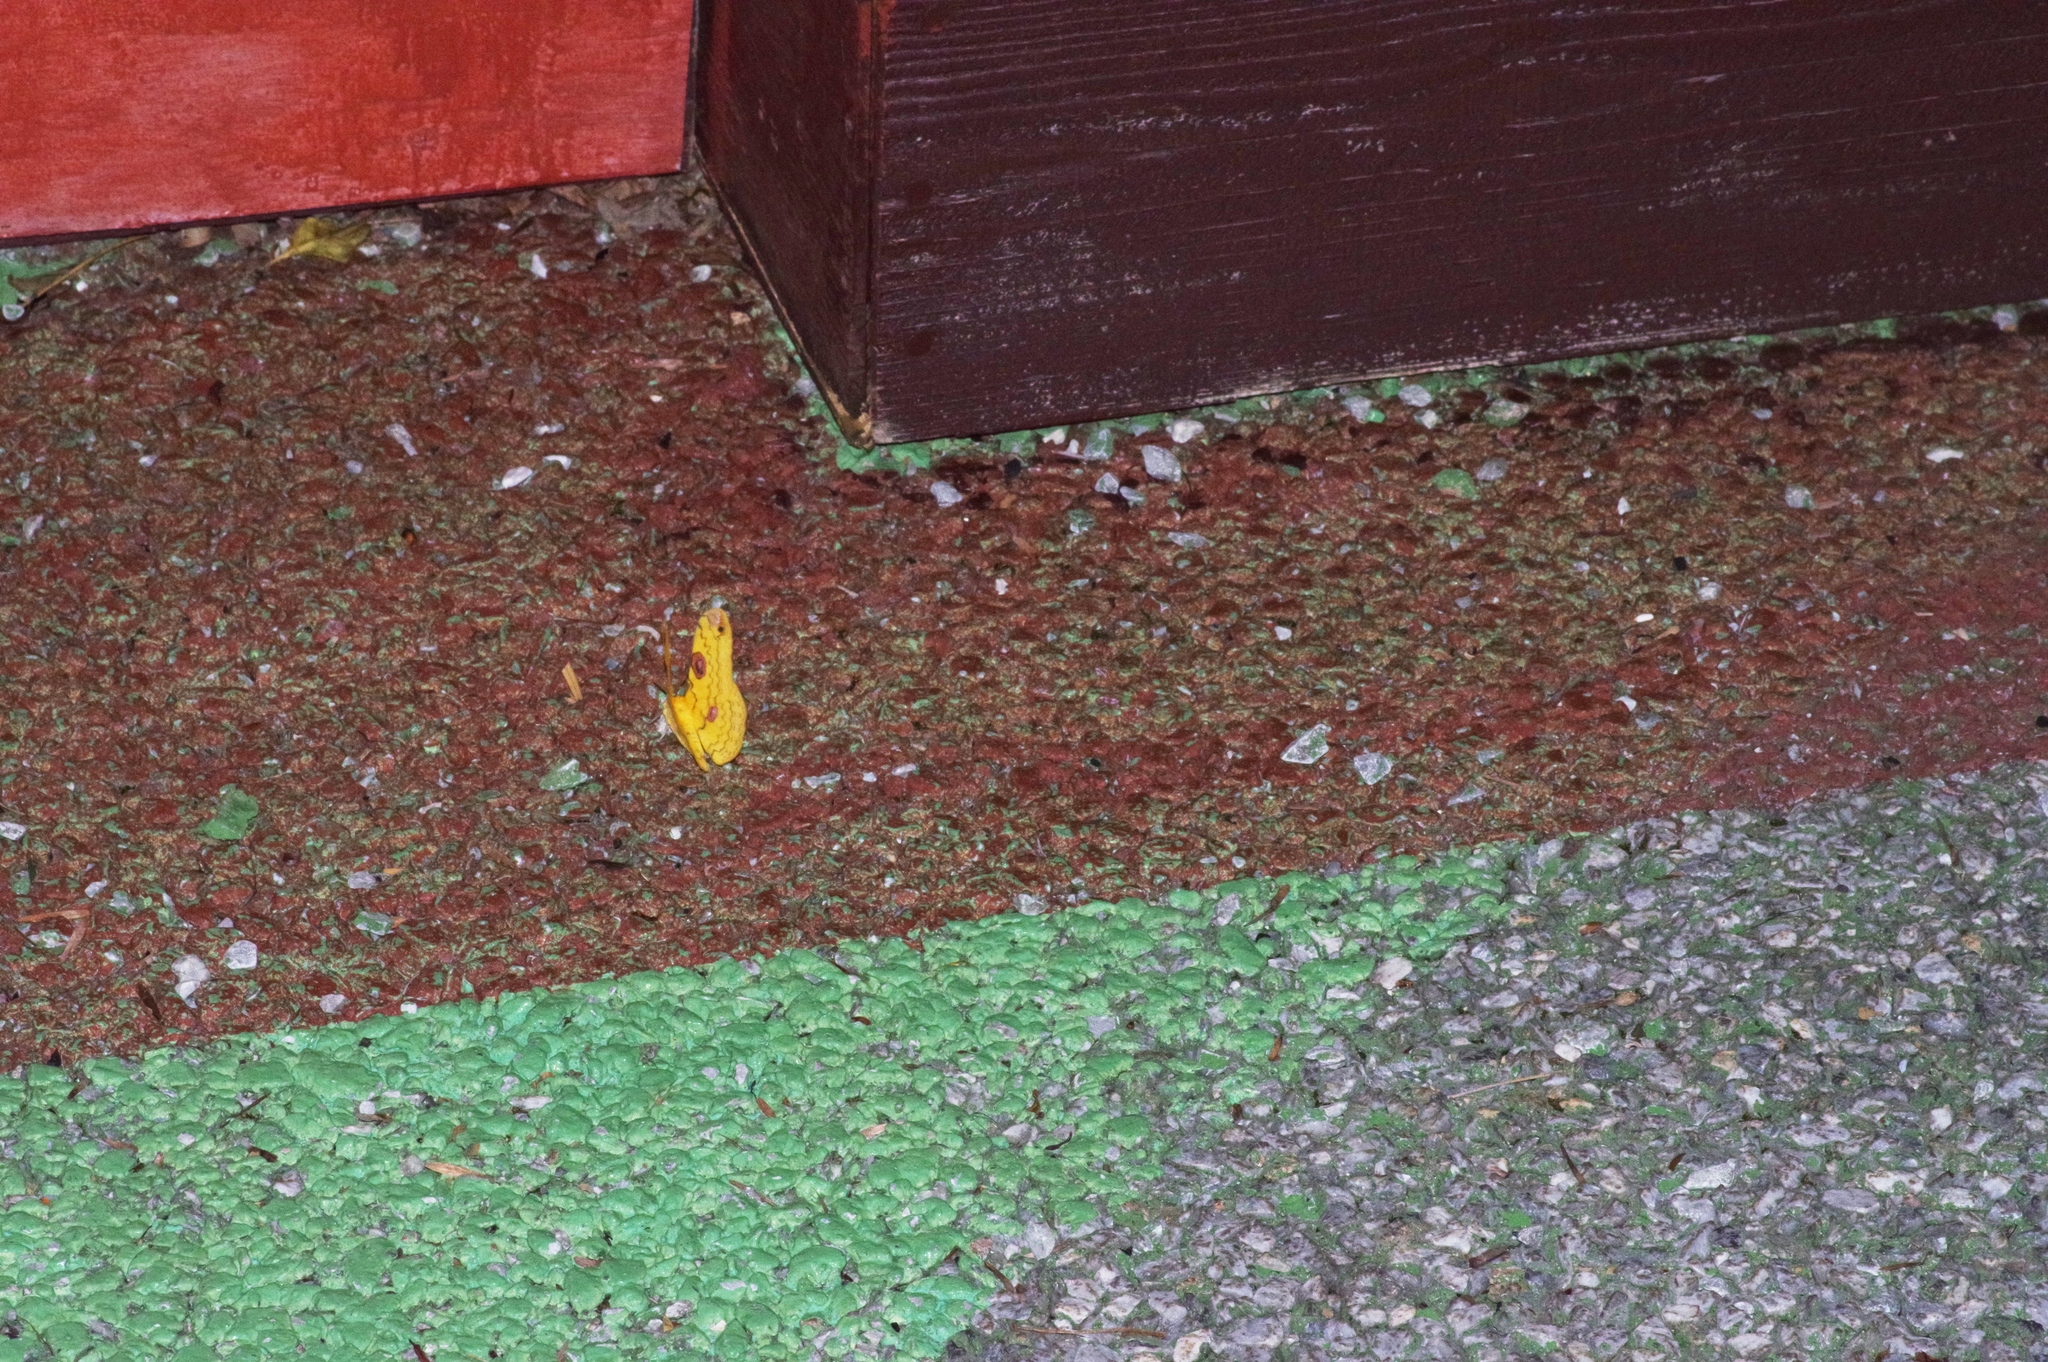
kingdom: Animalia
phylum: Arthropoda
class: Insecta
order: Lepidoptera
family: Saturniidae
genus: Loepa
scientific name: Loepa sakaei
